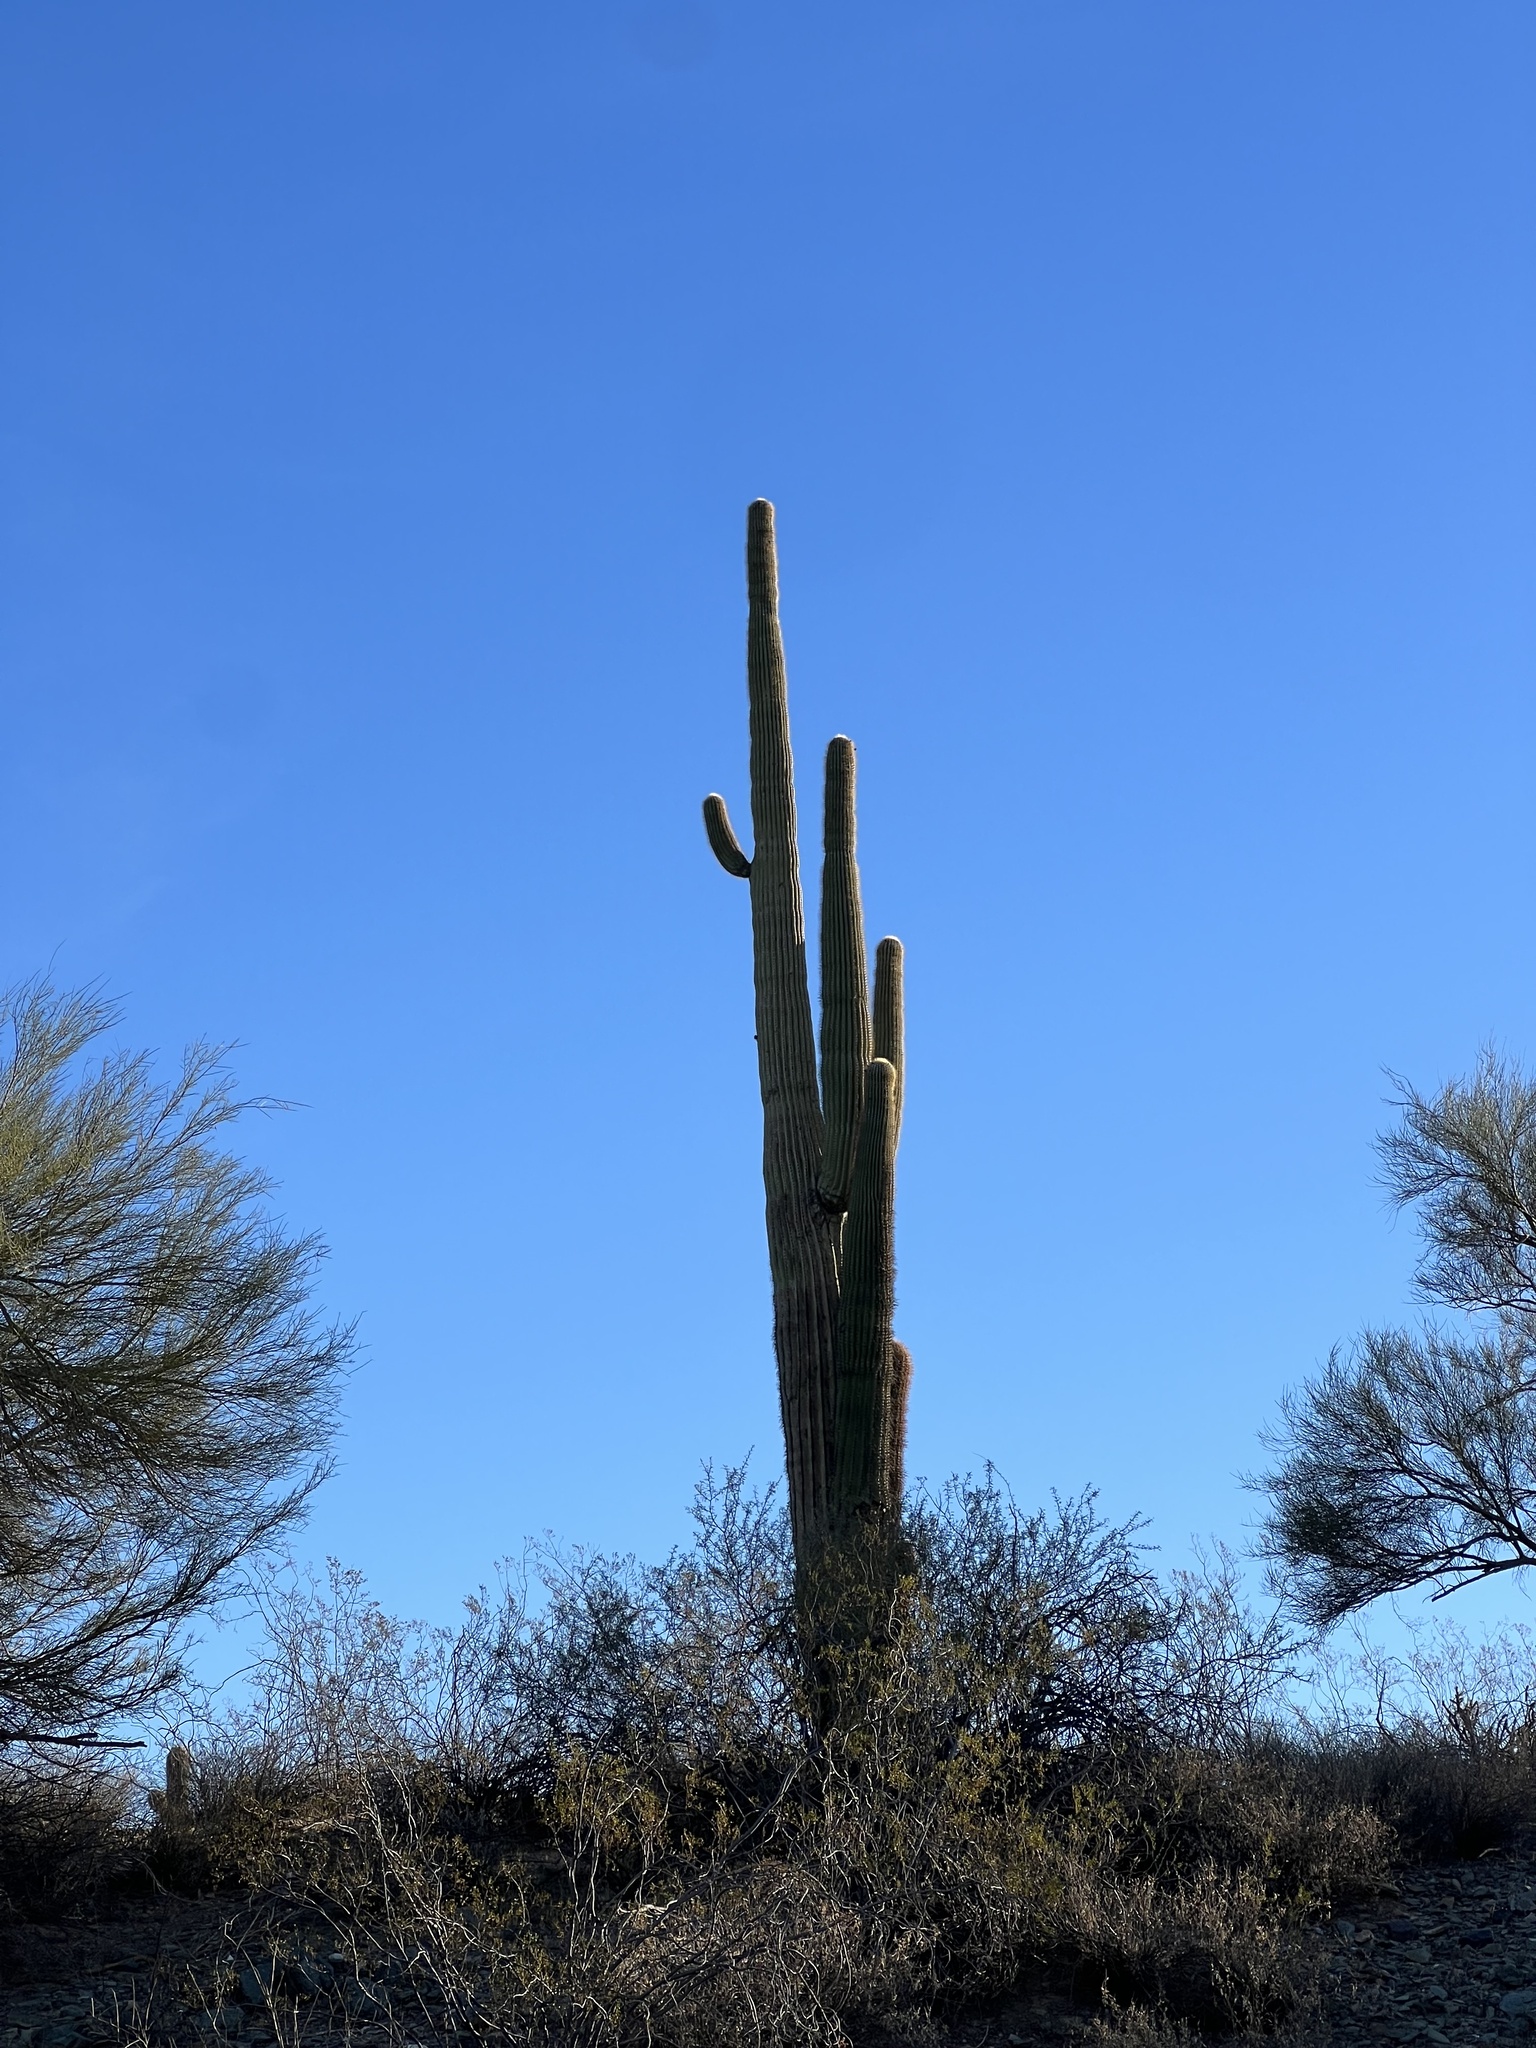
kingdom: Plantae
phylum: Tracheophyta
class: Magnoliopsida
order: Caryophyllales
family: Cactaceae
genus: Carnegiea
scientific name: Carnegiea gigantea
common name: Saguaro
